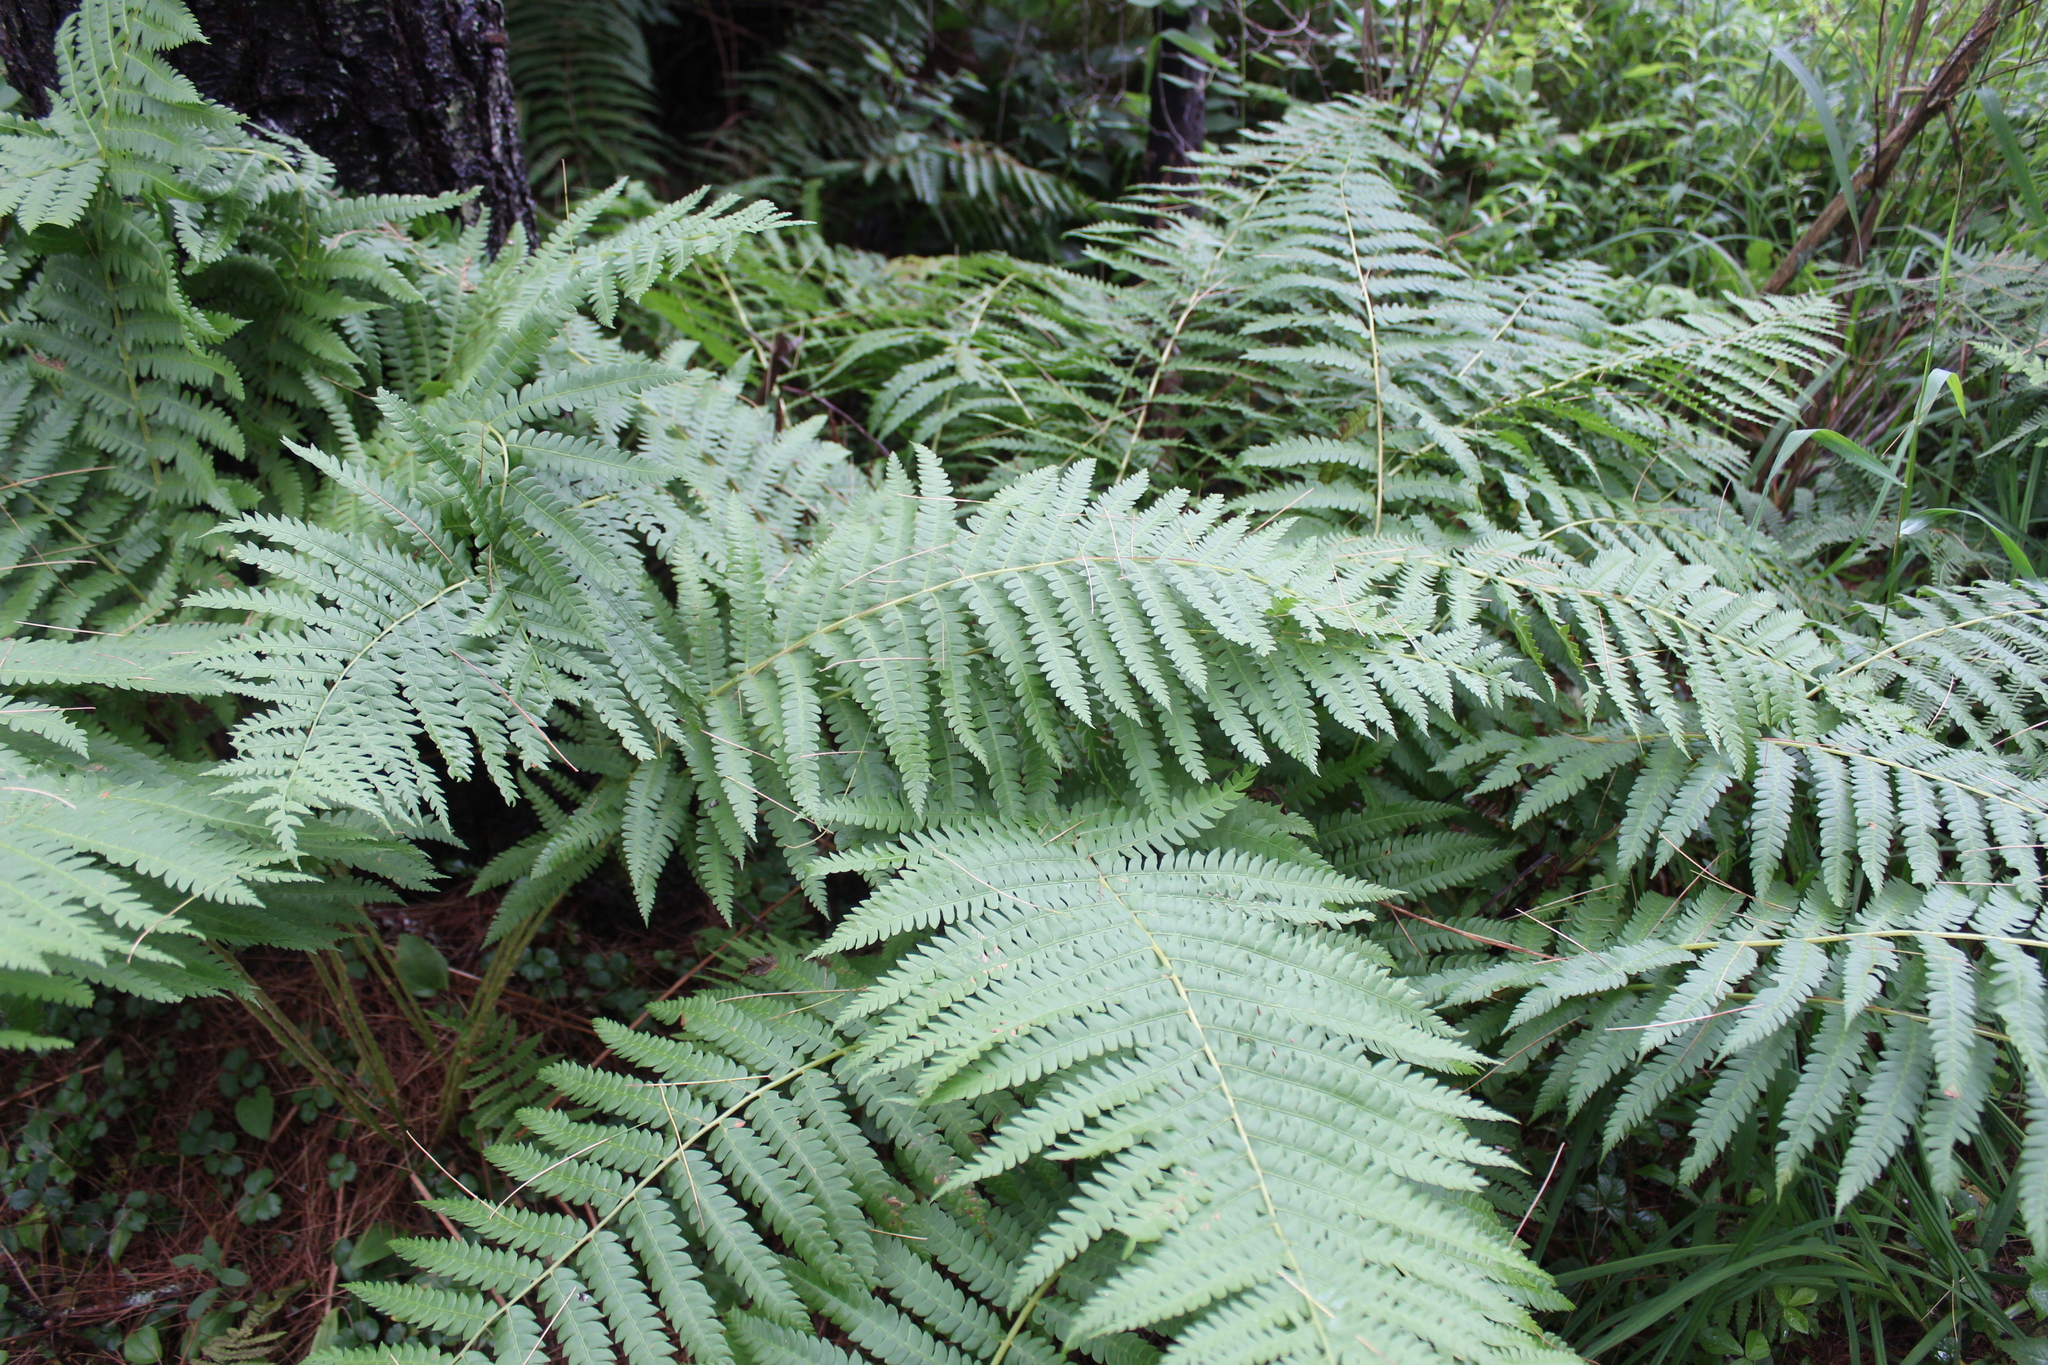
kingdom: Plantae
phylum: Tracheophyta
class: Polypodiopsida
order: Osmundales
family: Osmundaceae
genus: Osmundastrum
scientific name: Osmundastrum cinnamomeum
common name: Cinnamon fern
